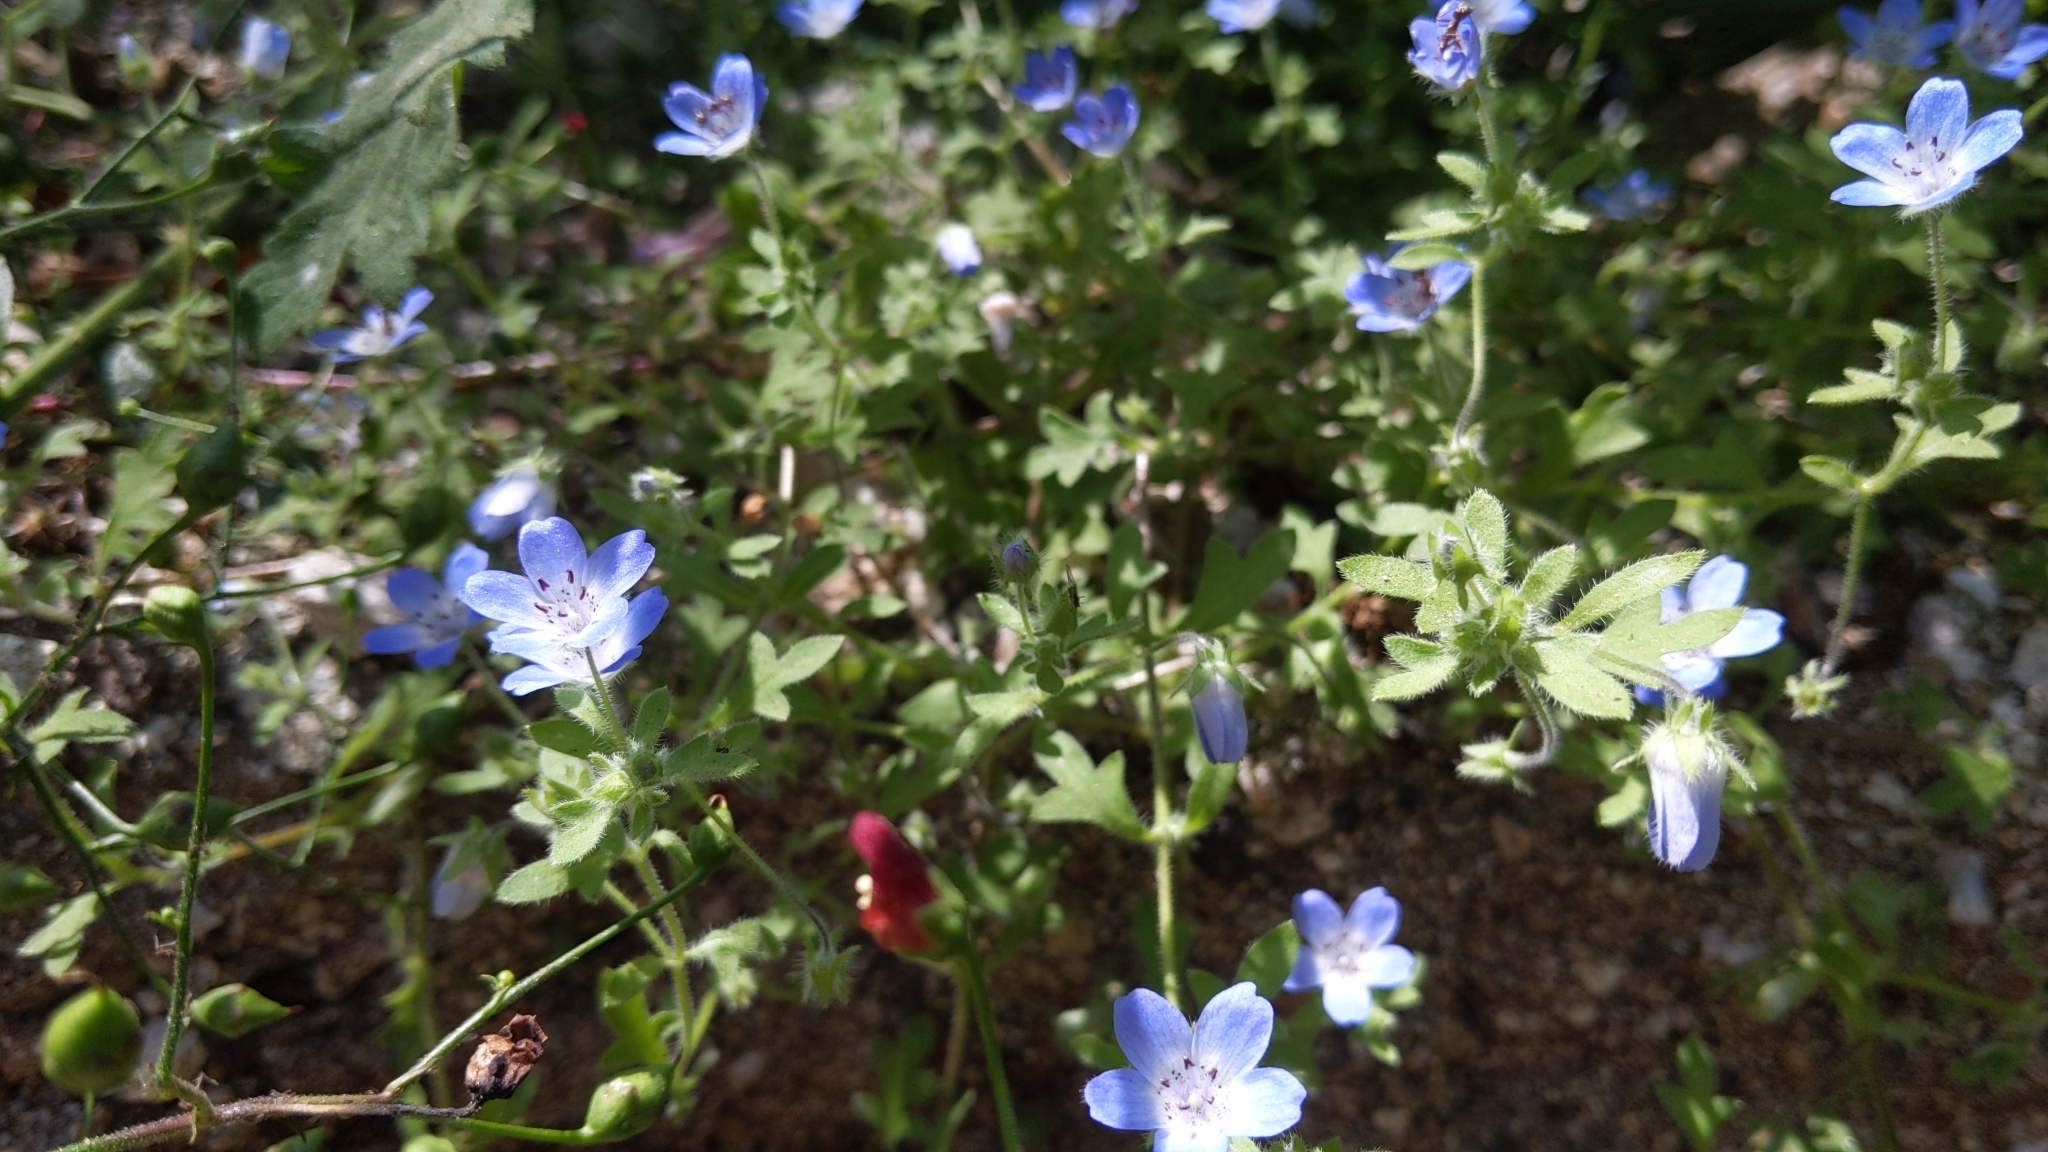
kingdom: Plantae
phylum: Tracheophyta
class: Magnoliopsida
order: Boraginales
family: Hydrophyllaceae
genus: Nemophila
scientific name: Nemophila menziesii
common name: Baby's-blue-eyes
